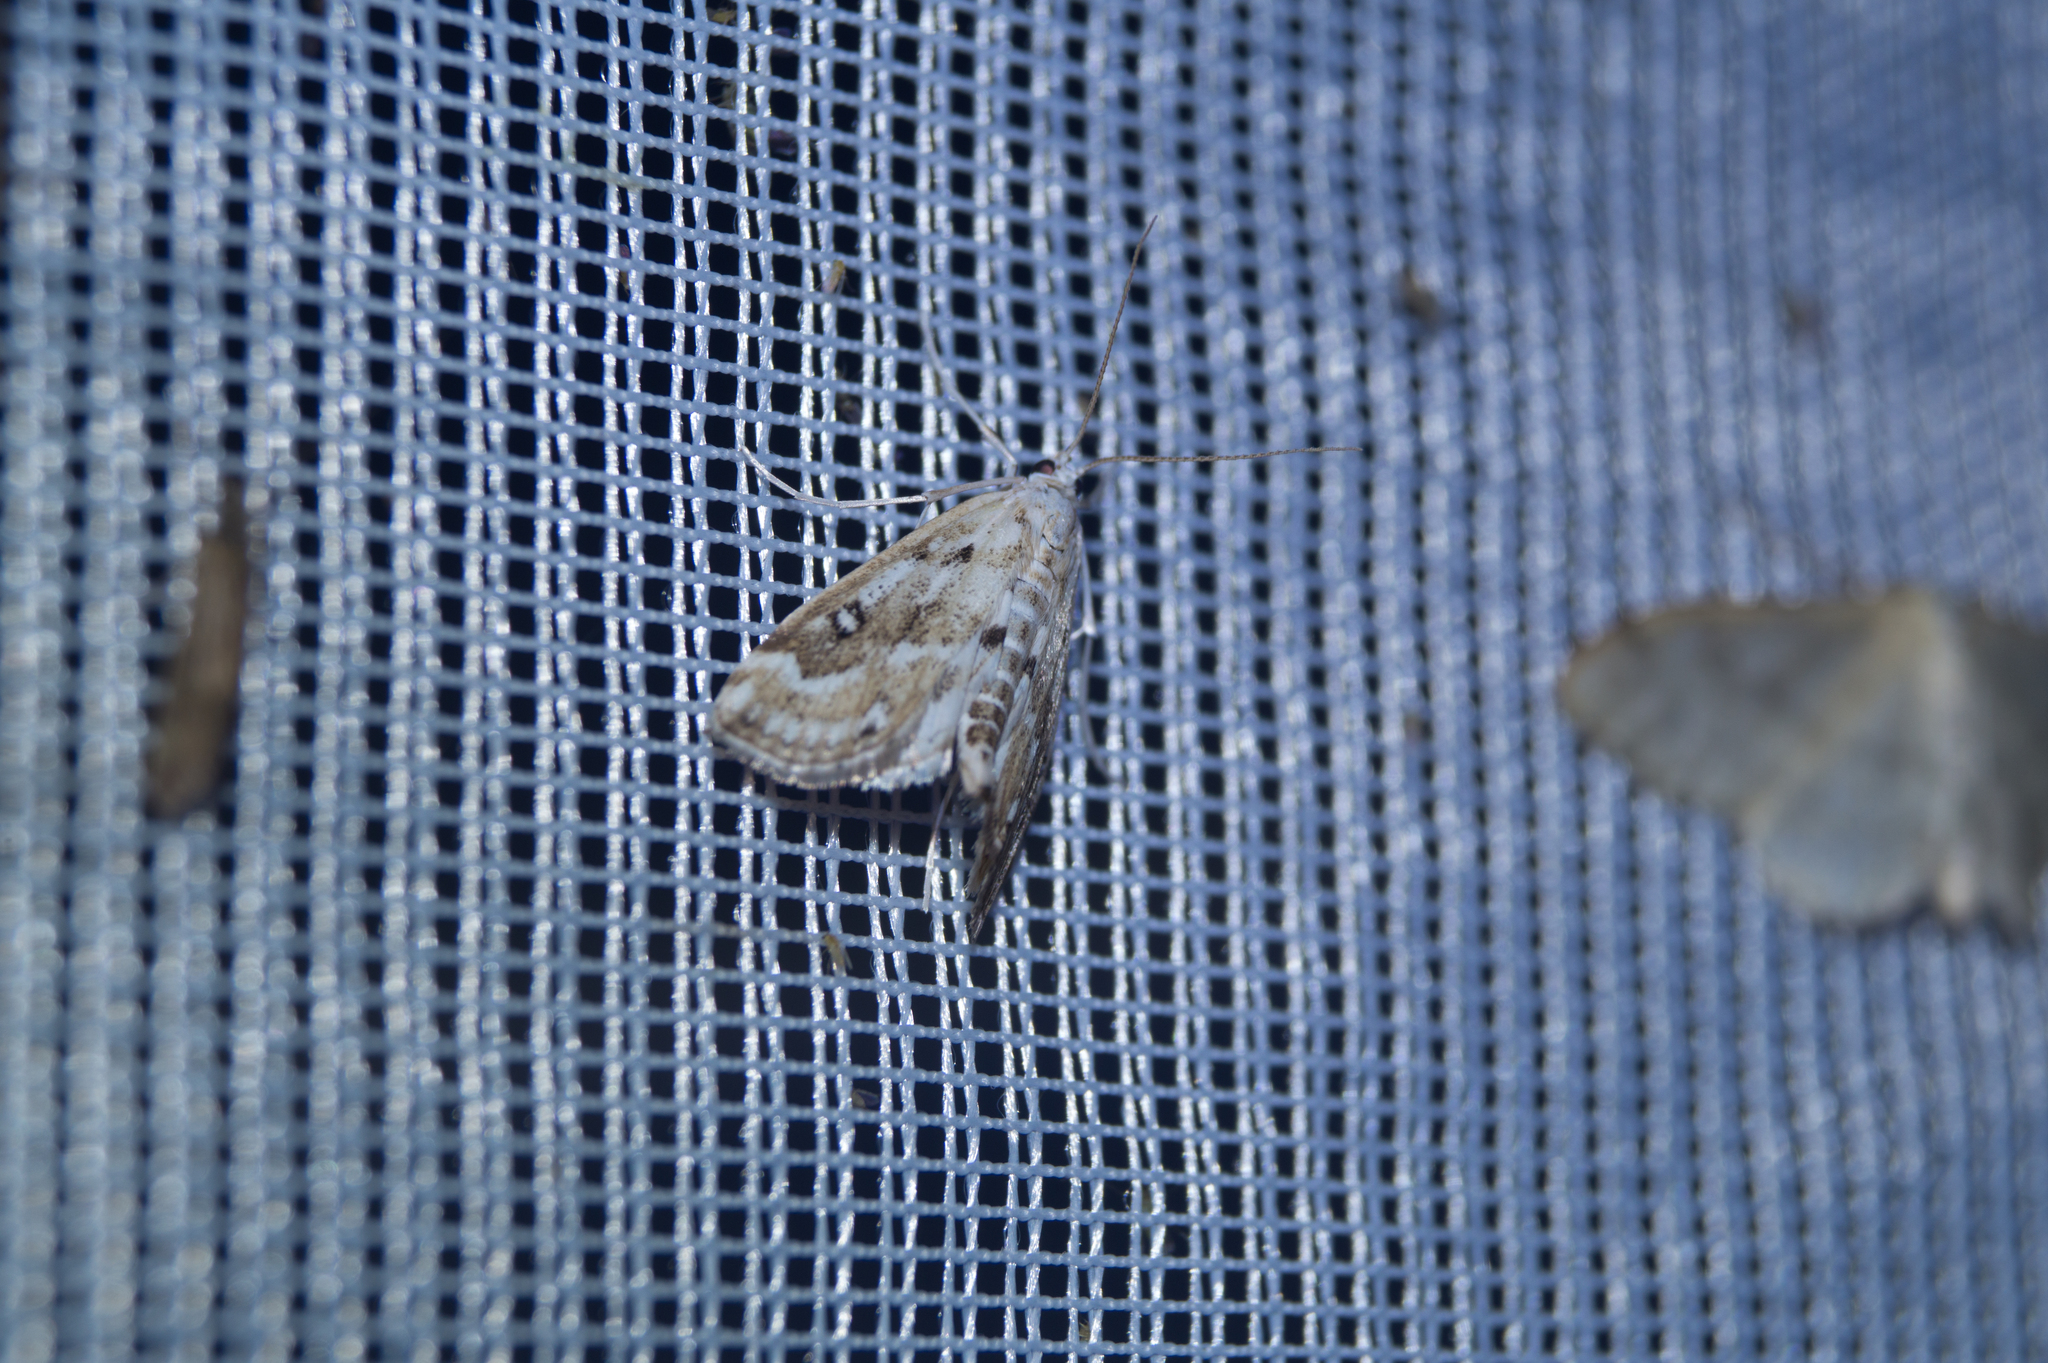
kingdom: Animalia
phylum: Arthropoda
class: Insecta
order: Lepidoptera
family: Crambidae
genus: Parapoynx
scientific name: Parapoynx stratiotata
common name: Ringed china-mark
